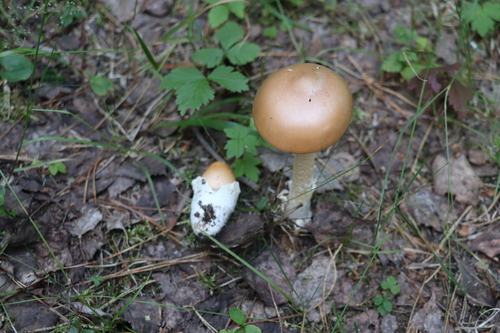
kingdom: Fungi
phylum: Basidiomycota
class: Agaricomycetes
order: Agaricales
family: Amanitaceae
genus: Amanita
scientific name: Amanita crocea
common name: Orange grisette
